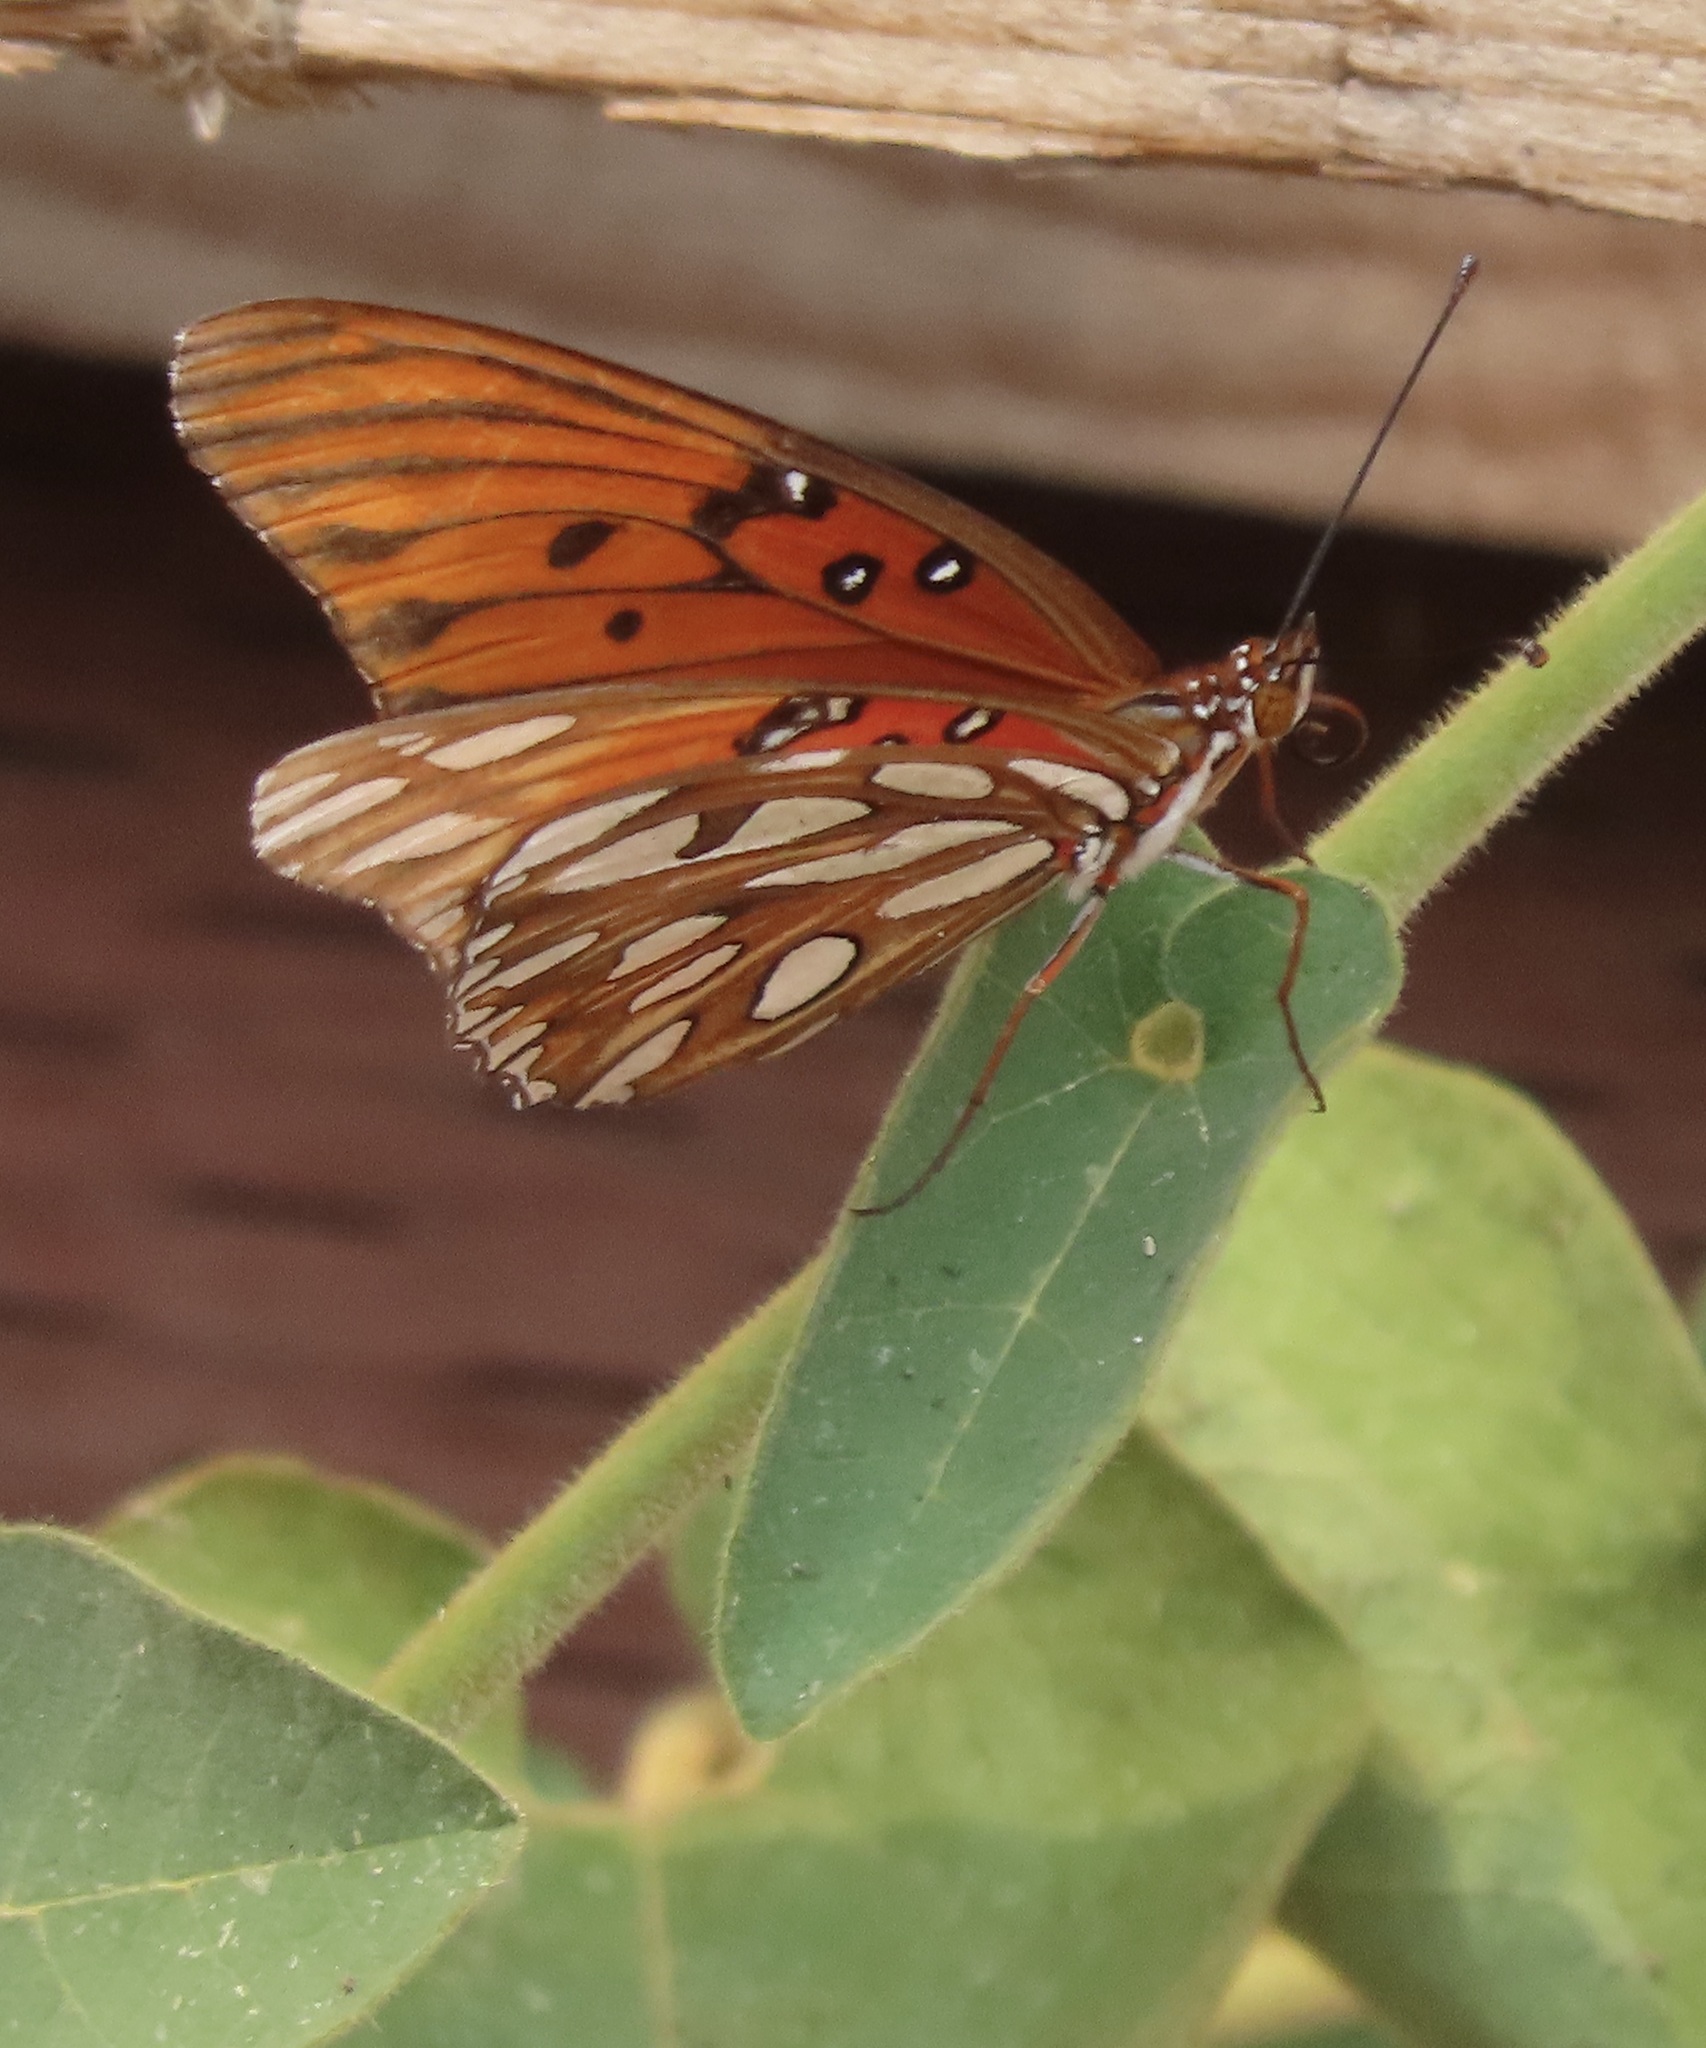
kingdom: Animalia
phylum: Arthropoda
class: Insecta
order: Lepidoptera
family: Nymphalidae
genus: Dione
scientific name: Dione vanillae
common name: Gulf fritillary
